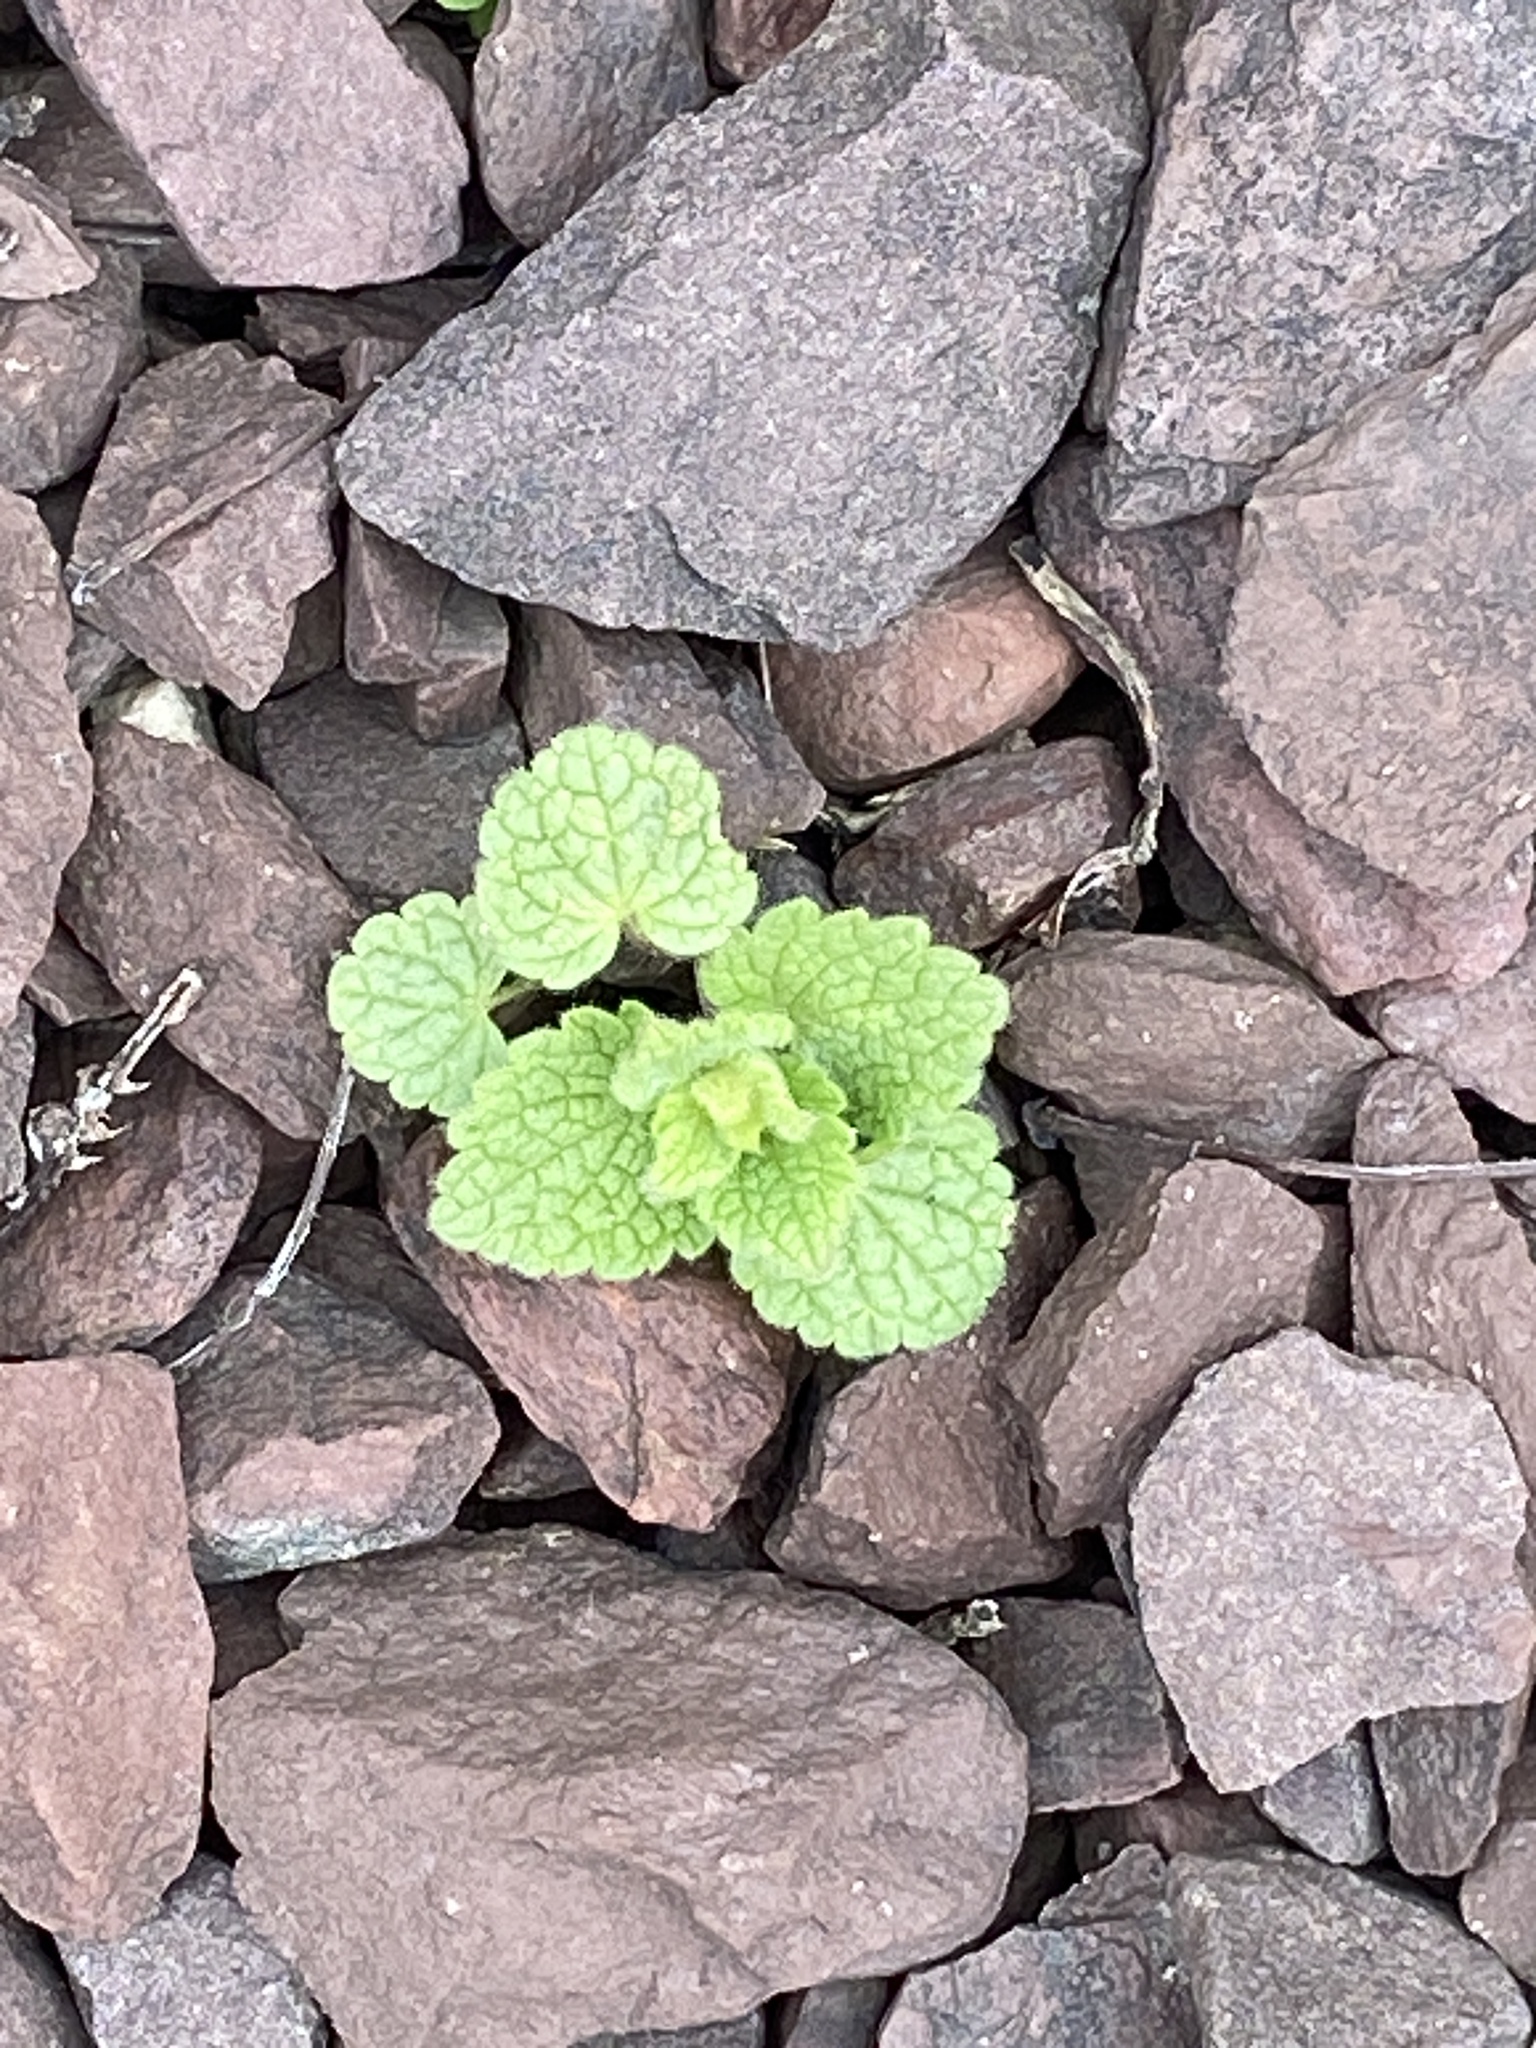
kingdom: Plantae
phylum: Tracheophyta
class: Magnoliopsida
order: Lamiales
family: Lamiaceae
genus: Lamium
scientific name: Lamium purpureum
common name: Red dead-nettle
